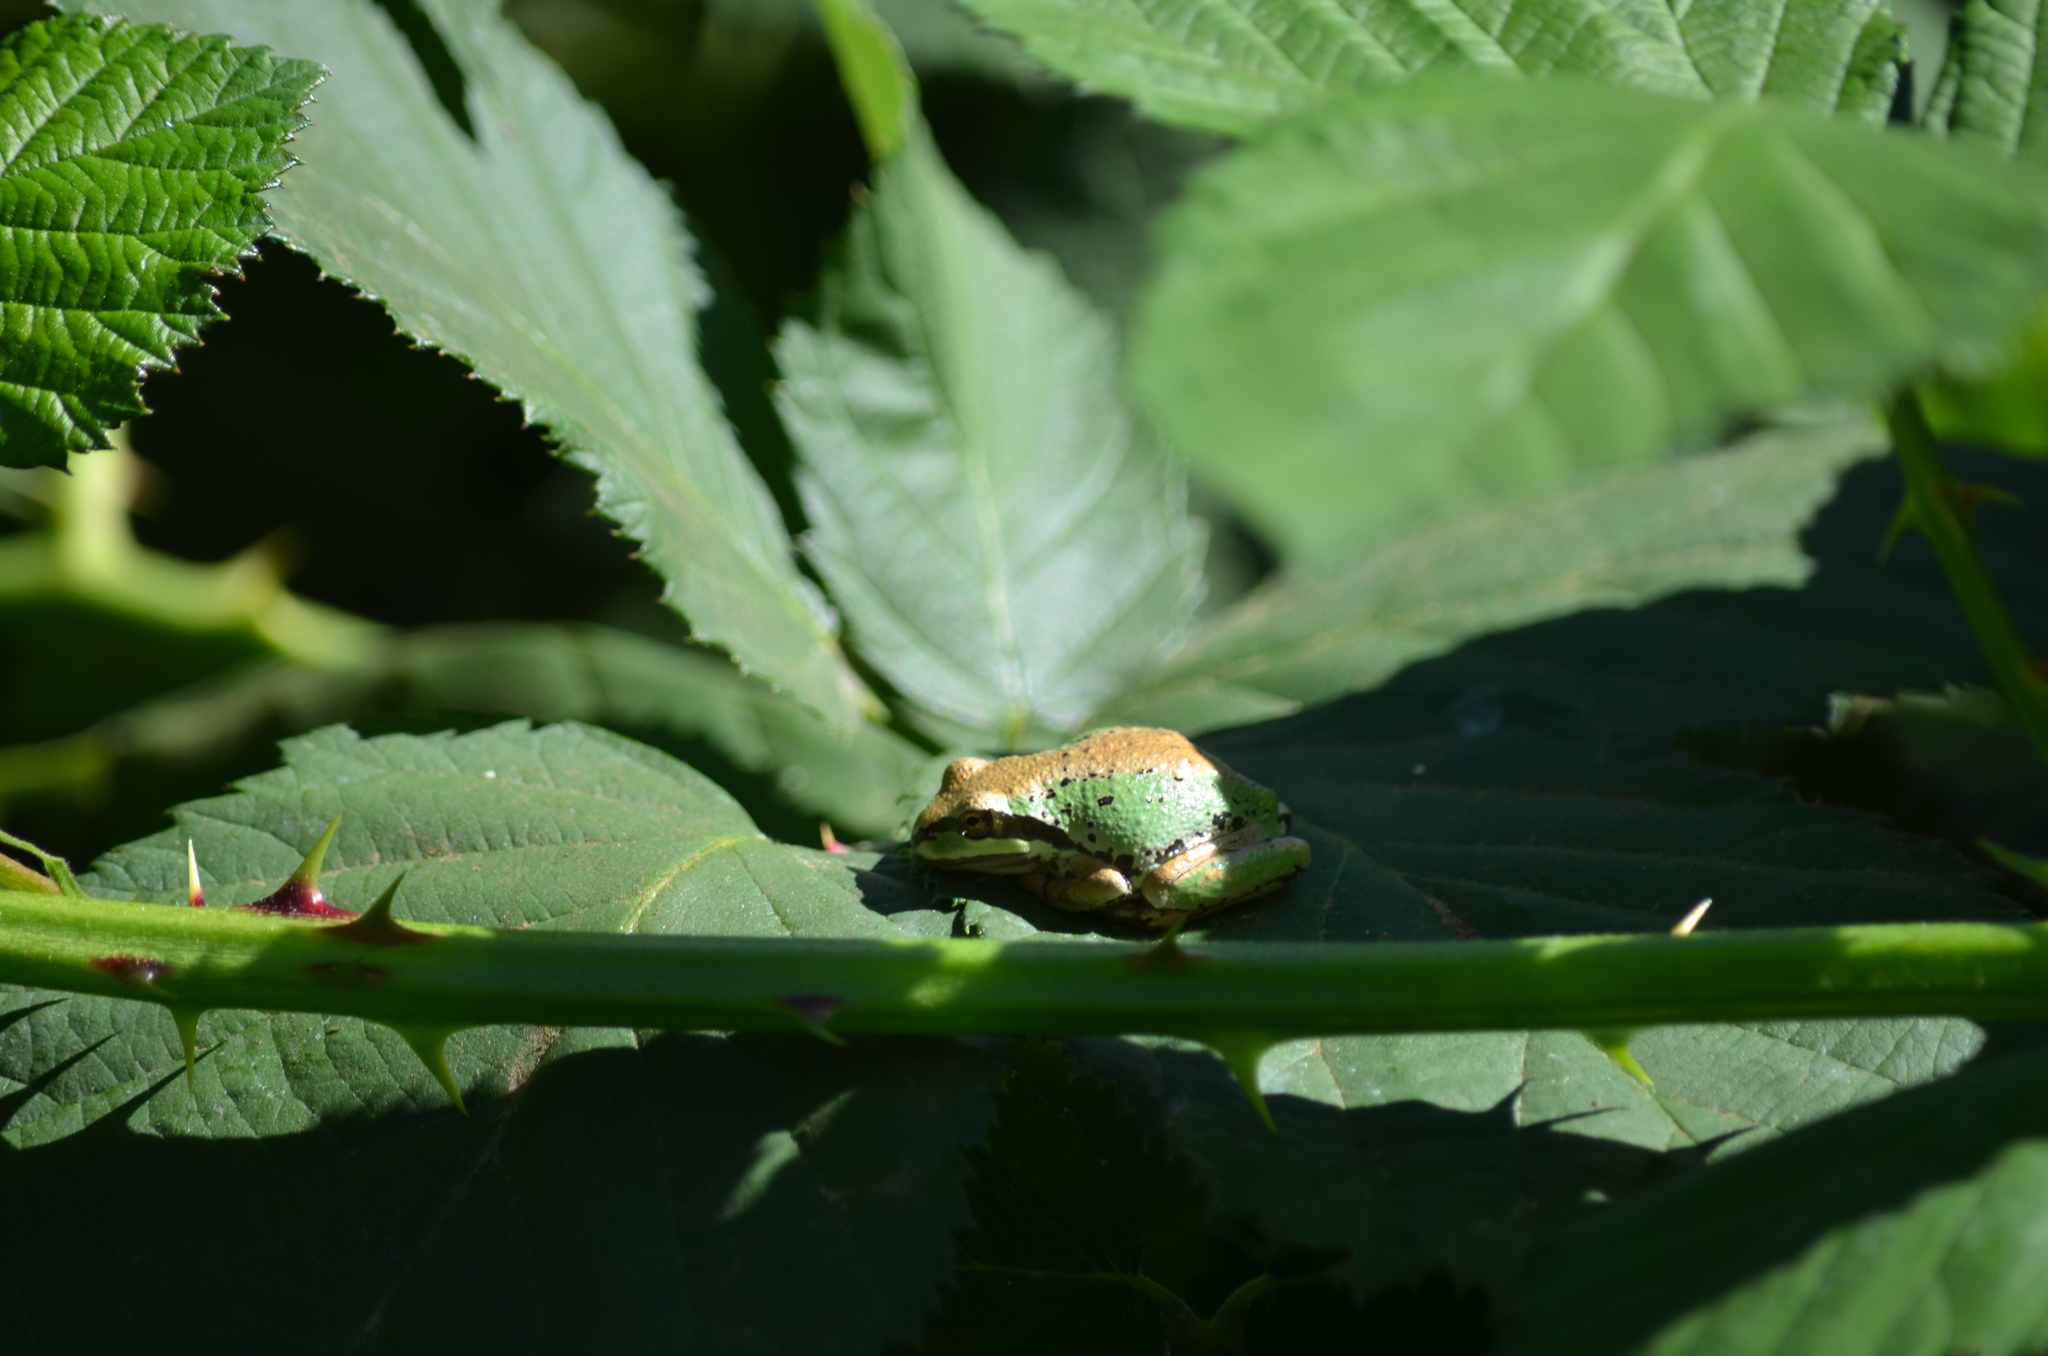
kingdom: Animalia
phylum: Chordata
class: Amphibia
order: Anura
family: Hylidae
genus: Pseudacris
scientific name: Pseudacris regilla
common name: Pacific chorus frog
